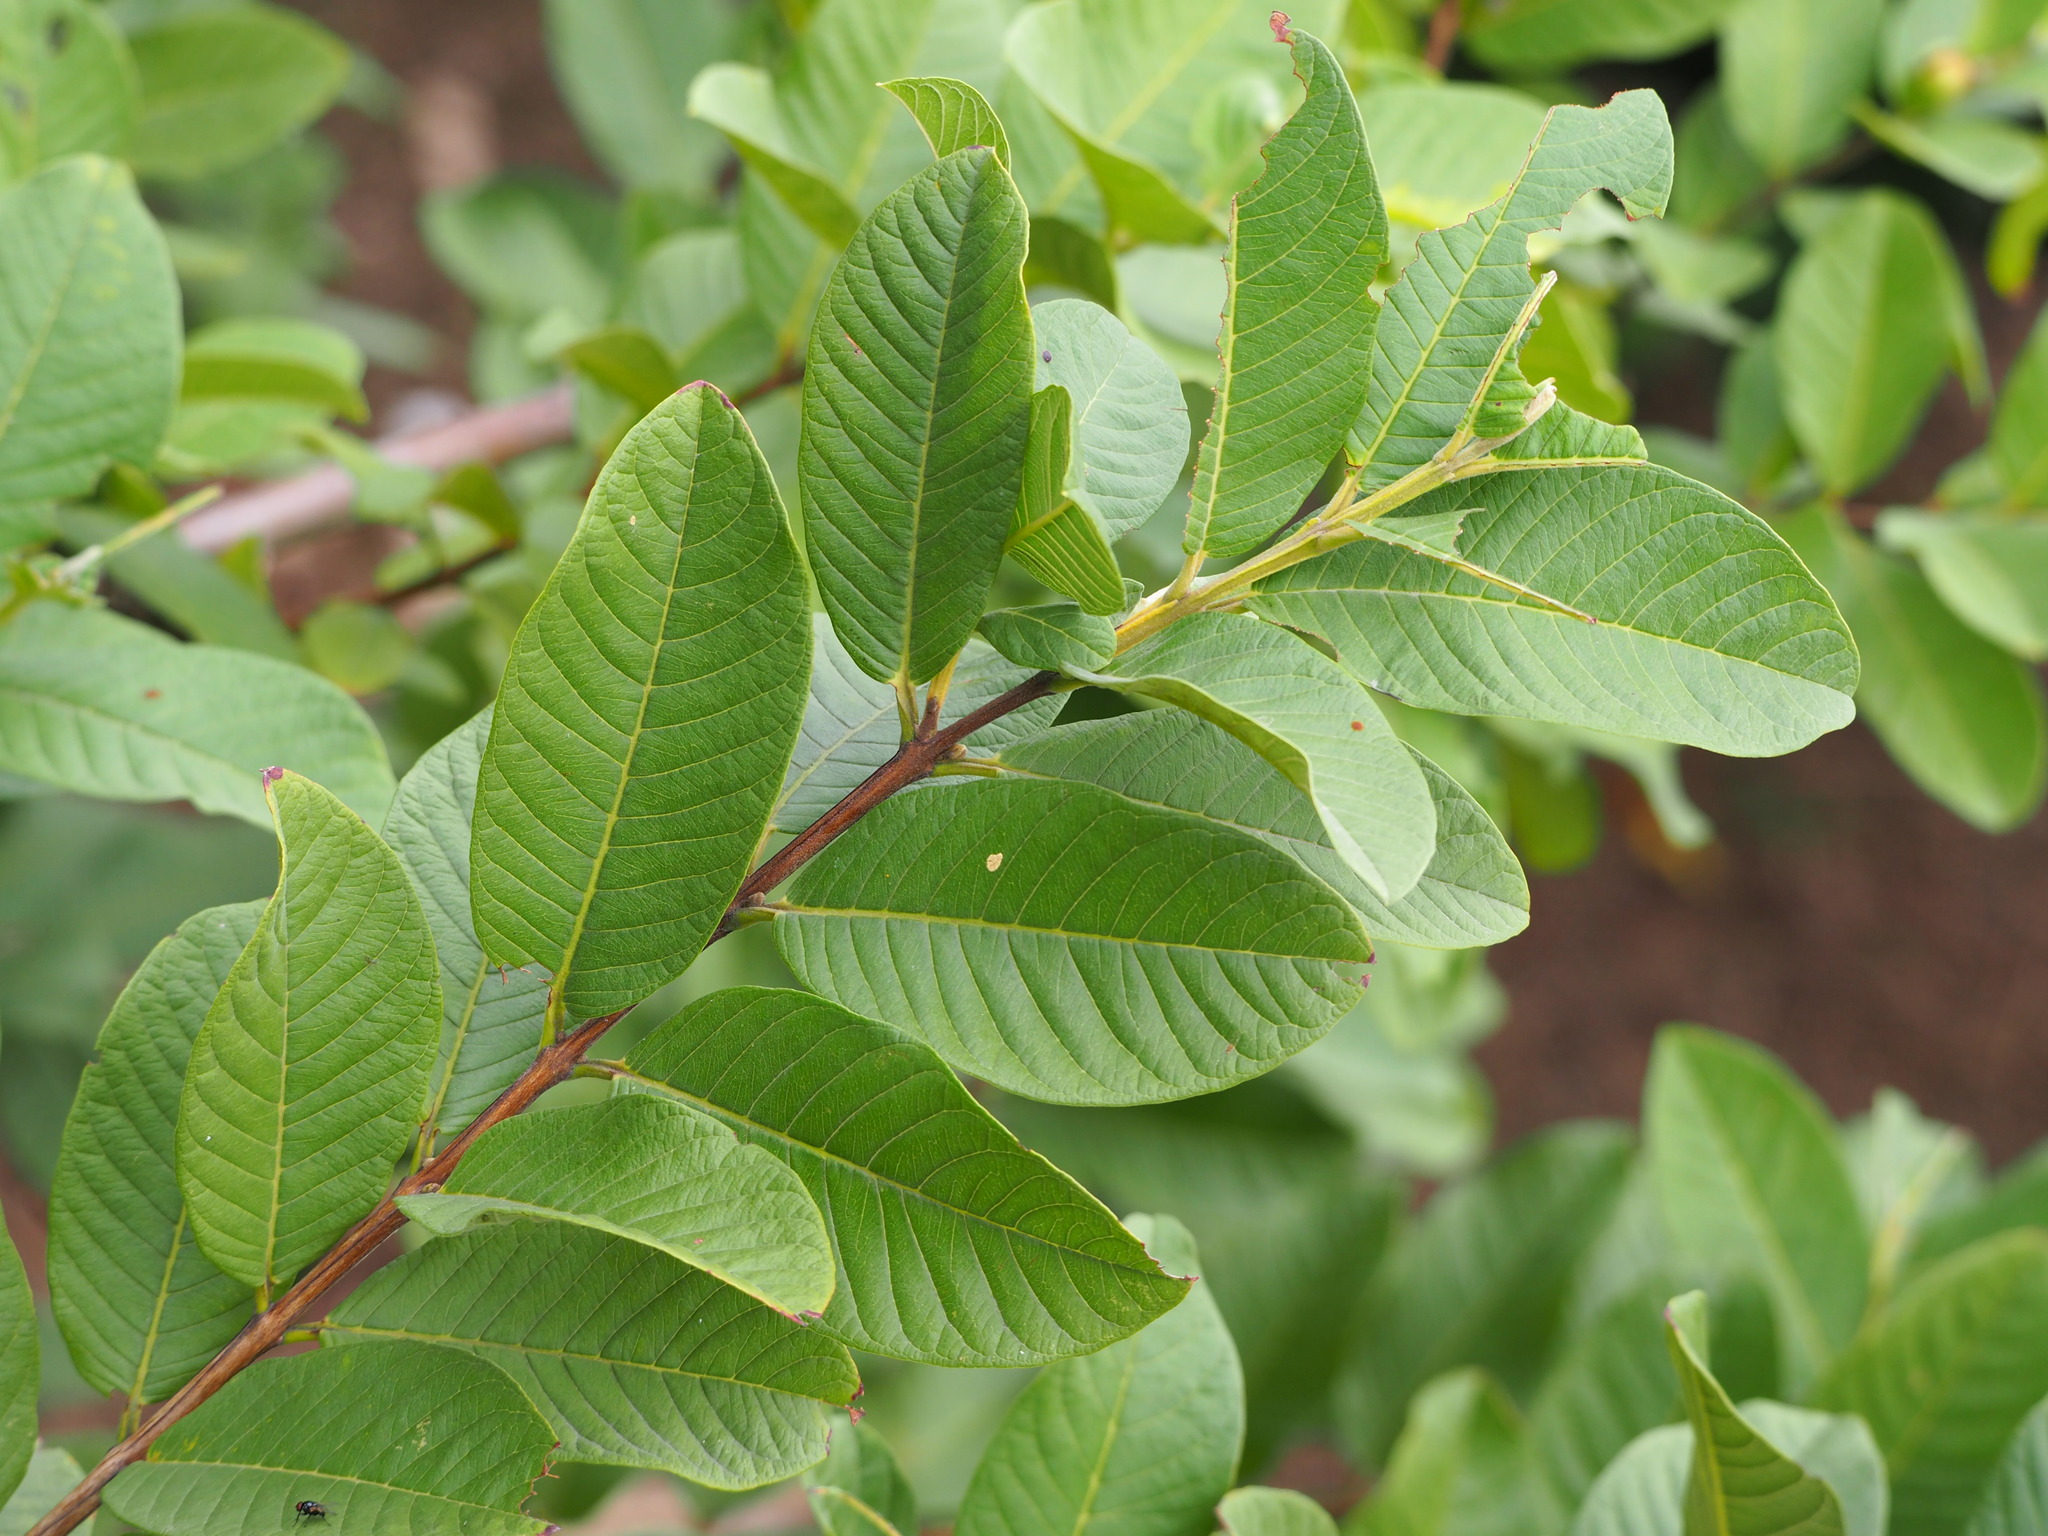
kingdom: Plantae
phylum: Tracheophyta
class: Magnoliopsida
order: Myrtales
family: Myrtaceae
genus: Psidium
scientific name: Psidium guajava
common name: Guava
